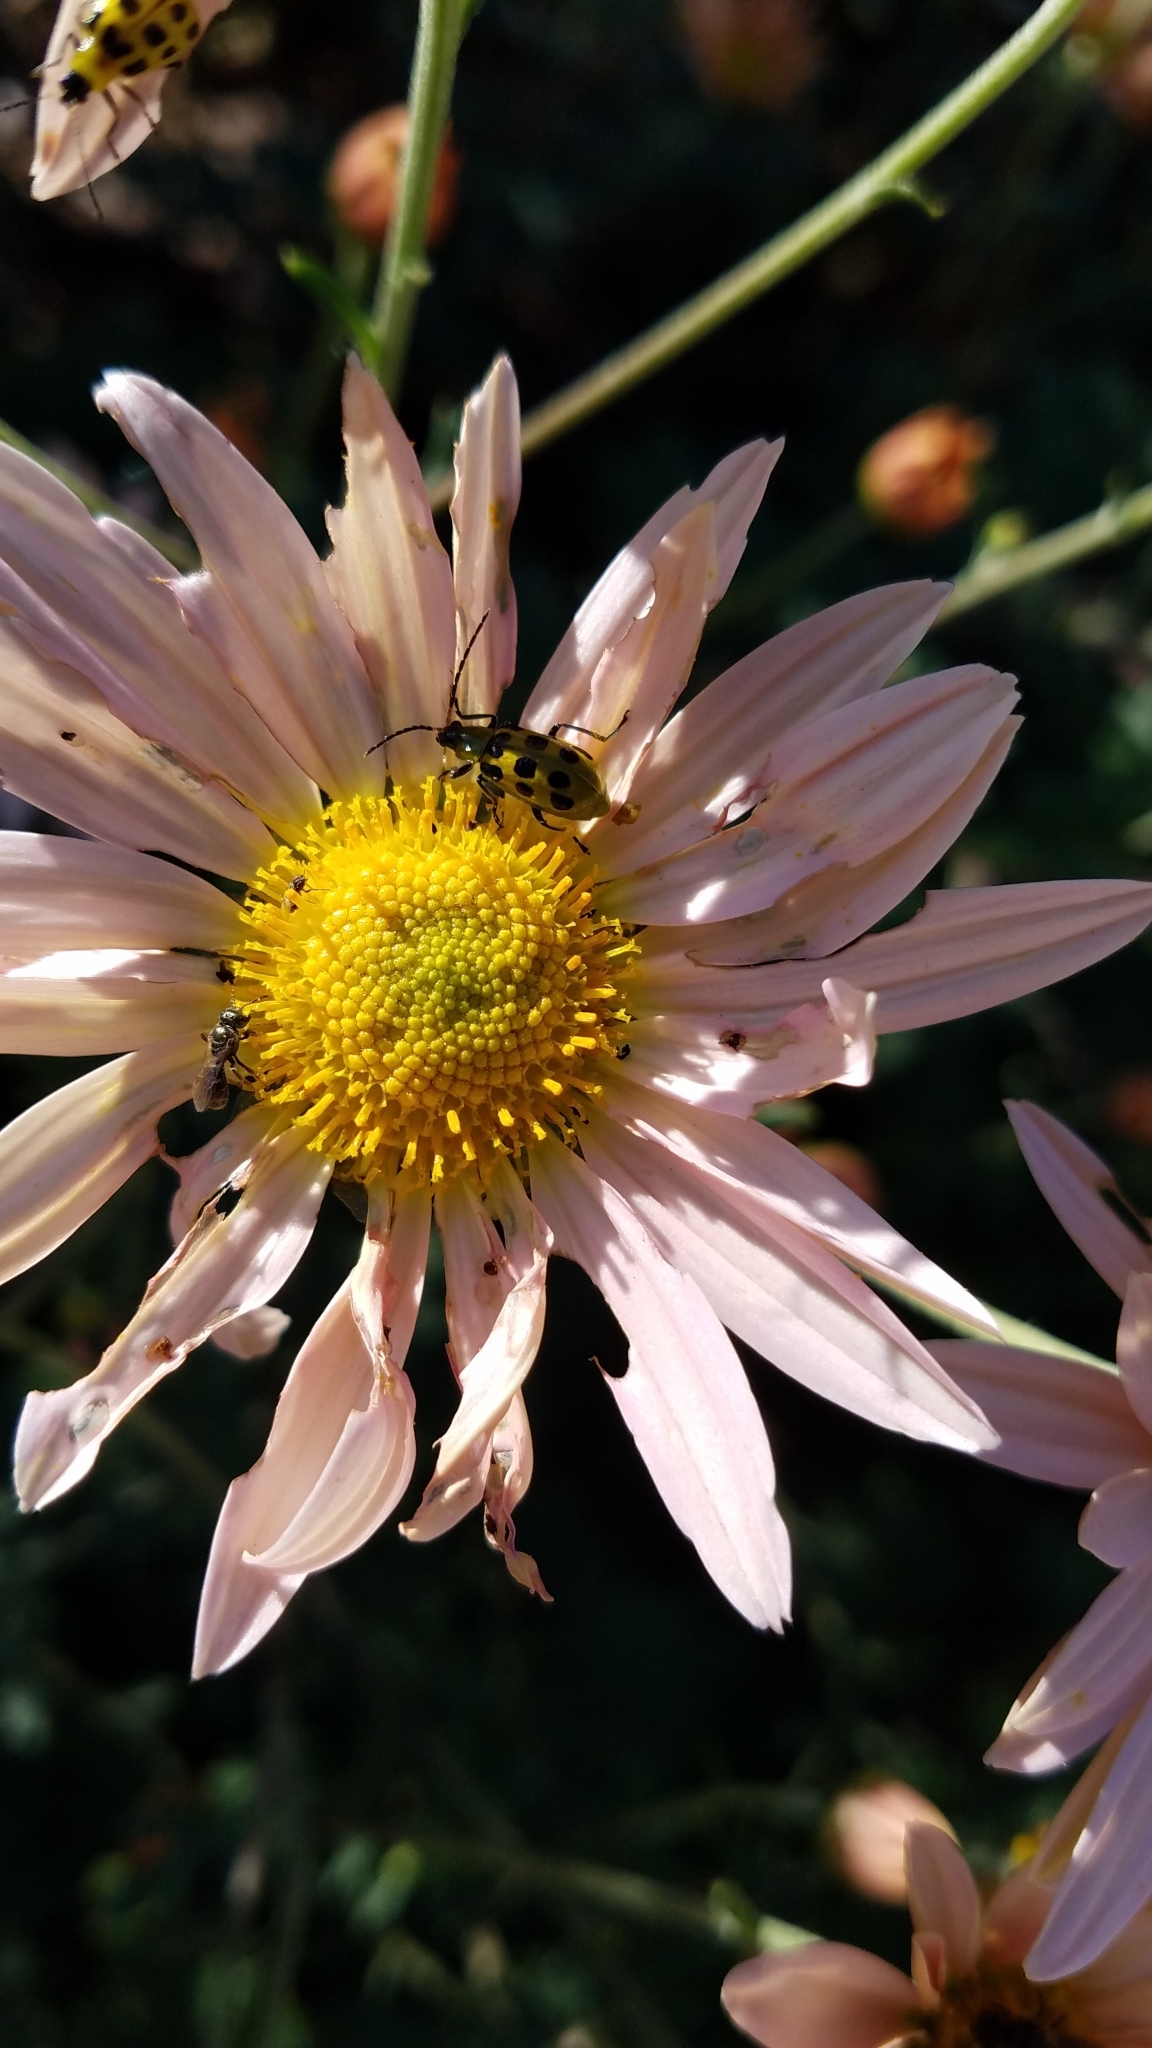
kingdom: Animalia
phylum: Arthropoda
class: Insecta
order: Coleoptera
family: Chrysomelidae
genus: Diabrotica
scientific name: Diabrotica undecimpunctata
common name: Spotted cucumber beetle
